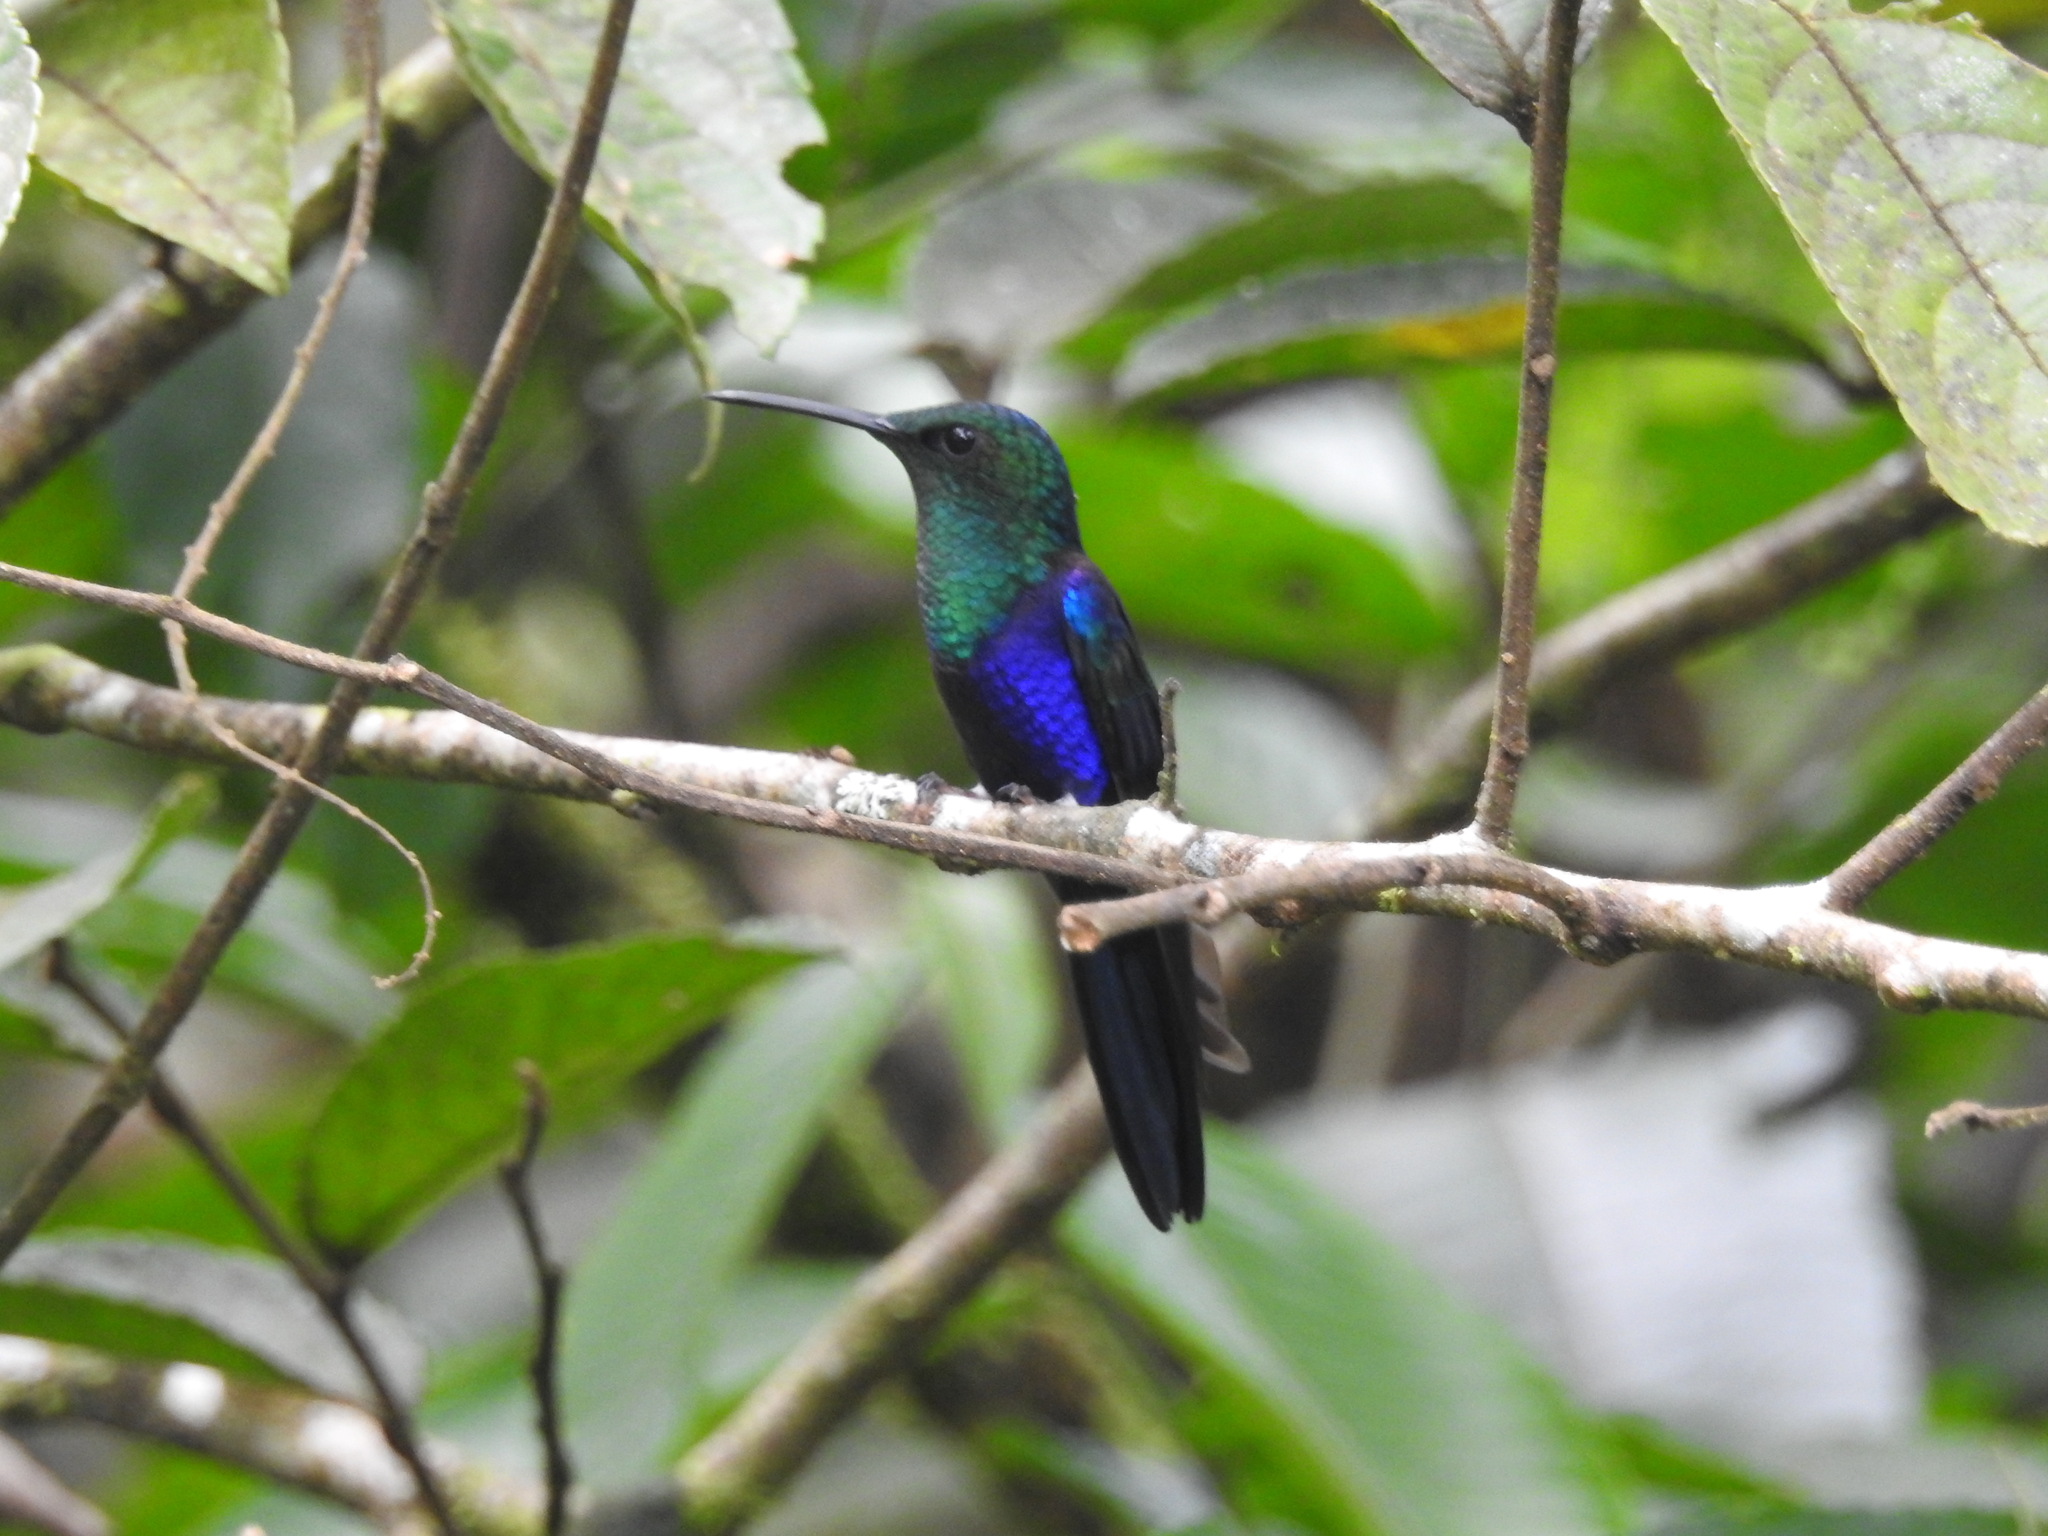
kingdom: Animalia
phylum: Chordata
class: Aves
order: Apodiformes
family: Trochilidae
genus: Thalurania
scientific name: Thalurania furcata
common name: Fork-tailed woodnymph
